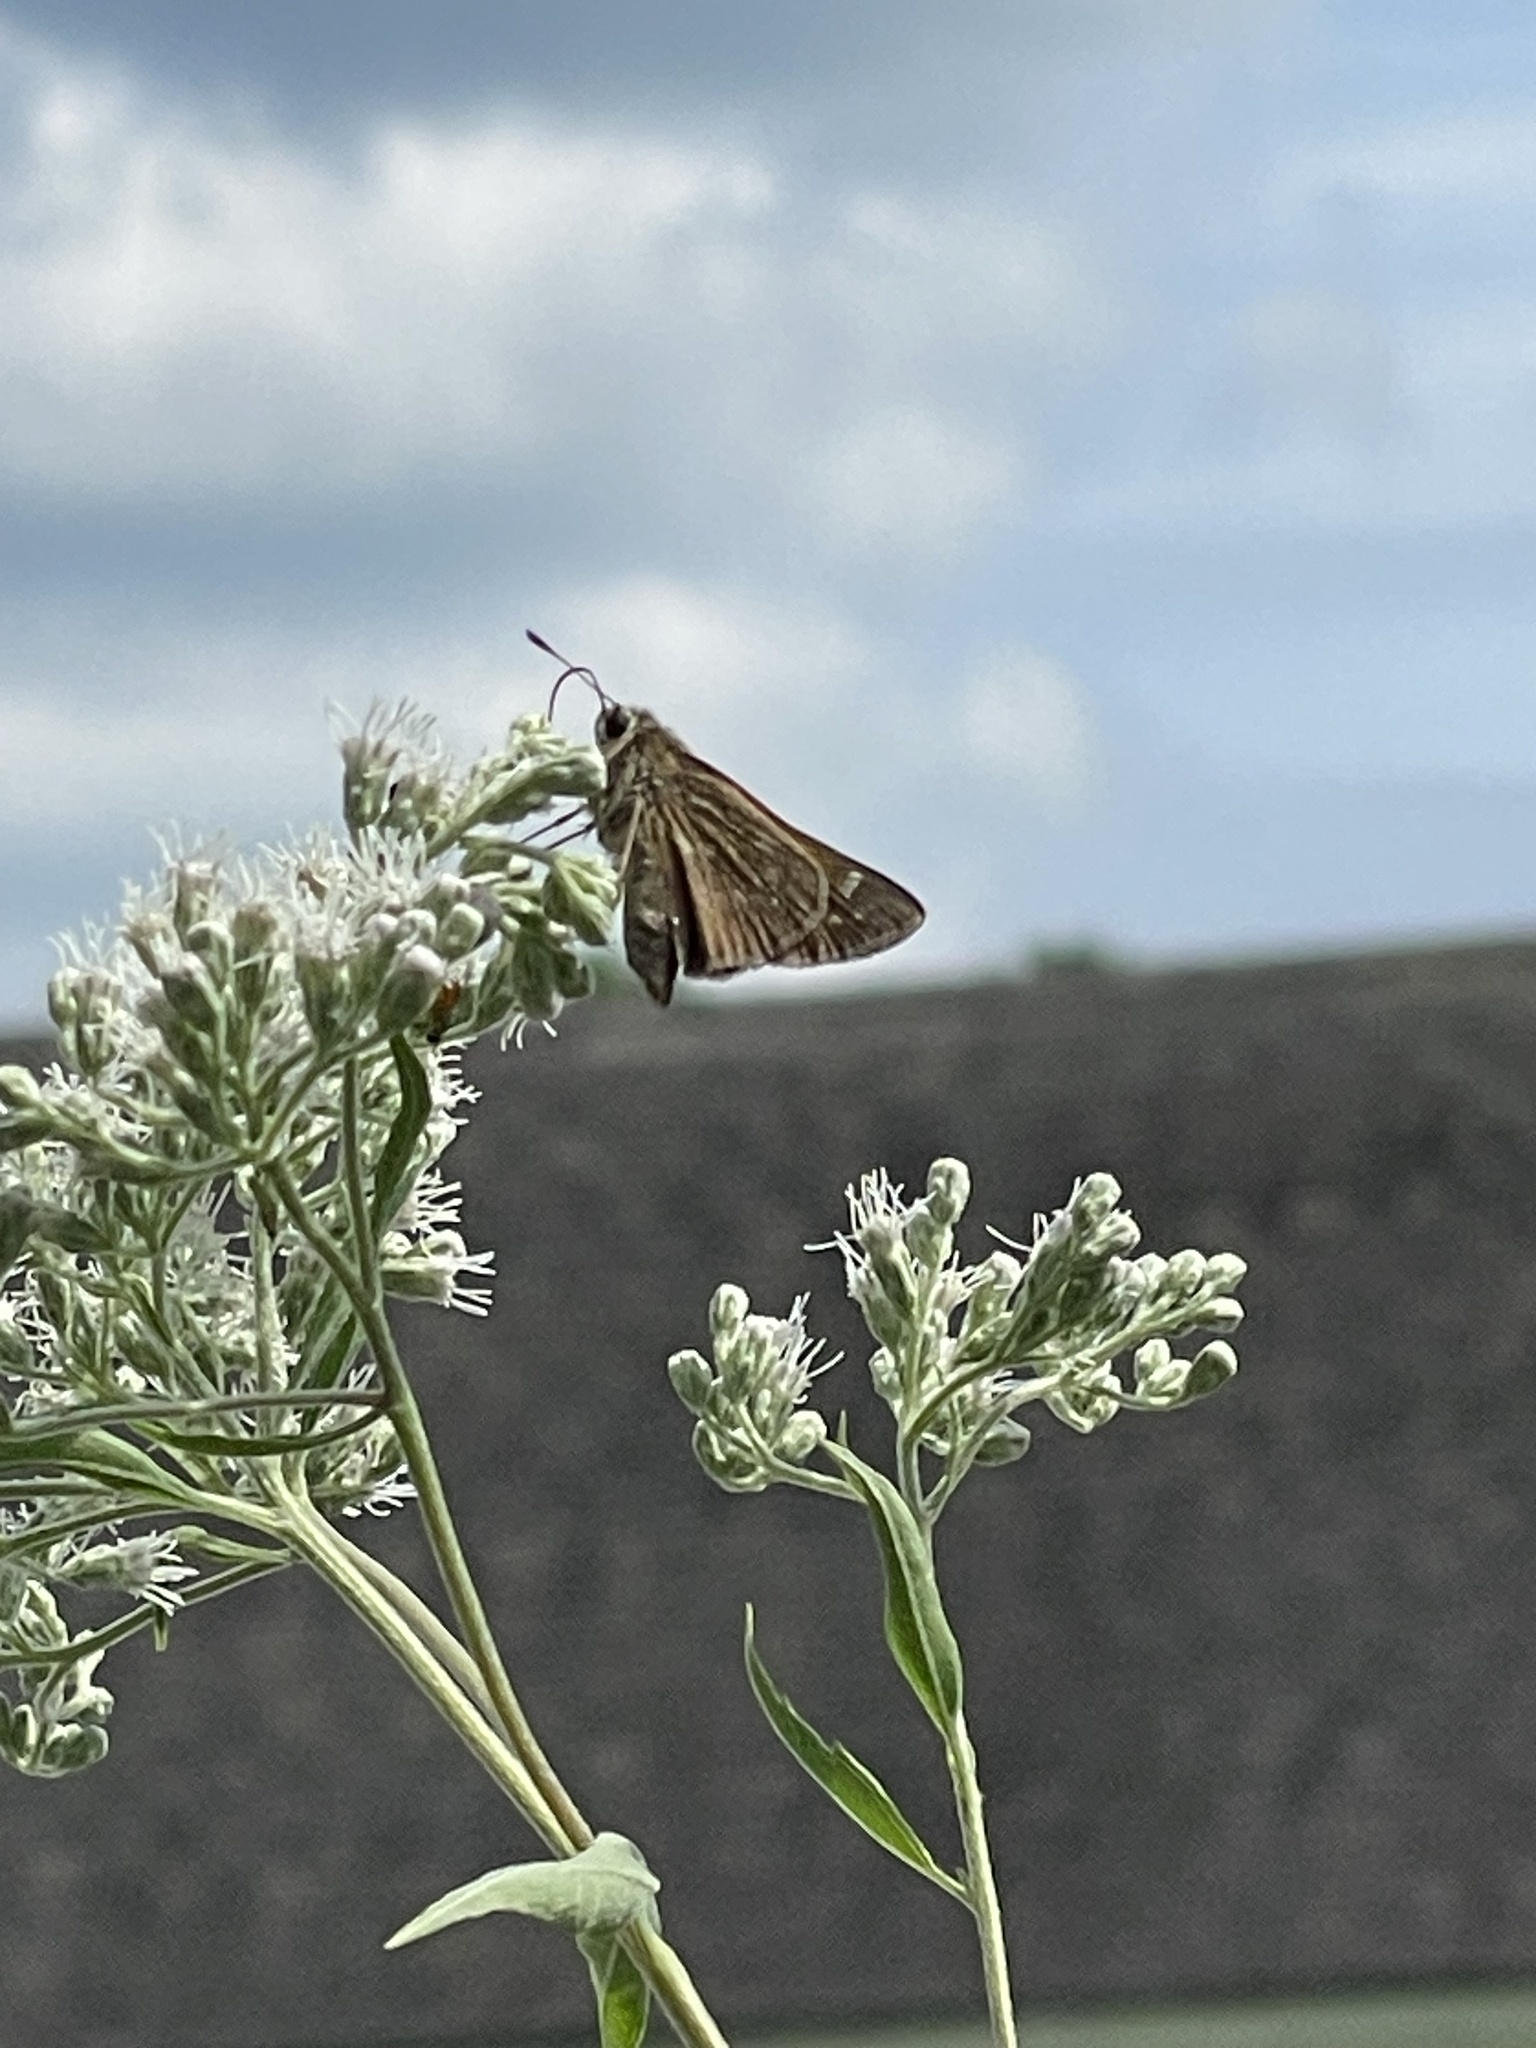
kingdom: Animalia
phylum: Arthropoda
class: Insecta
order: Lepidoptera
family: Hesperiidae
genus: Atalopedes
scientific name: Atalopedes
